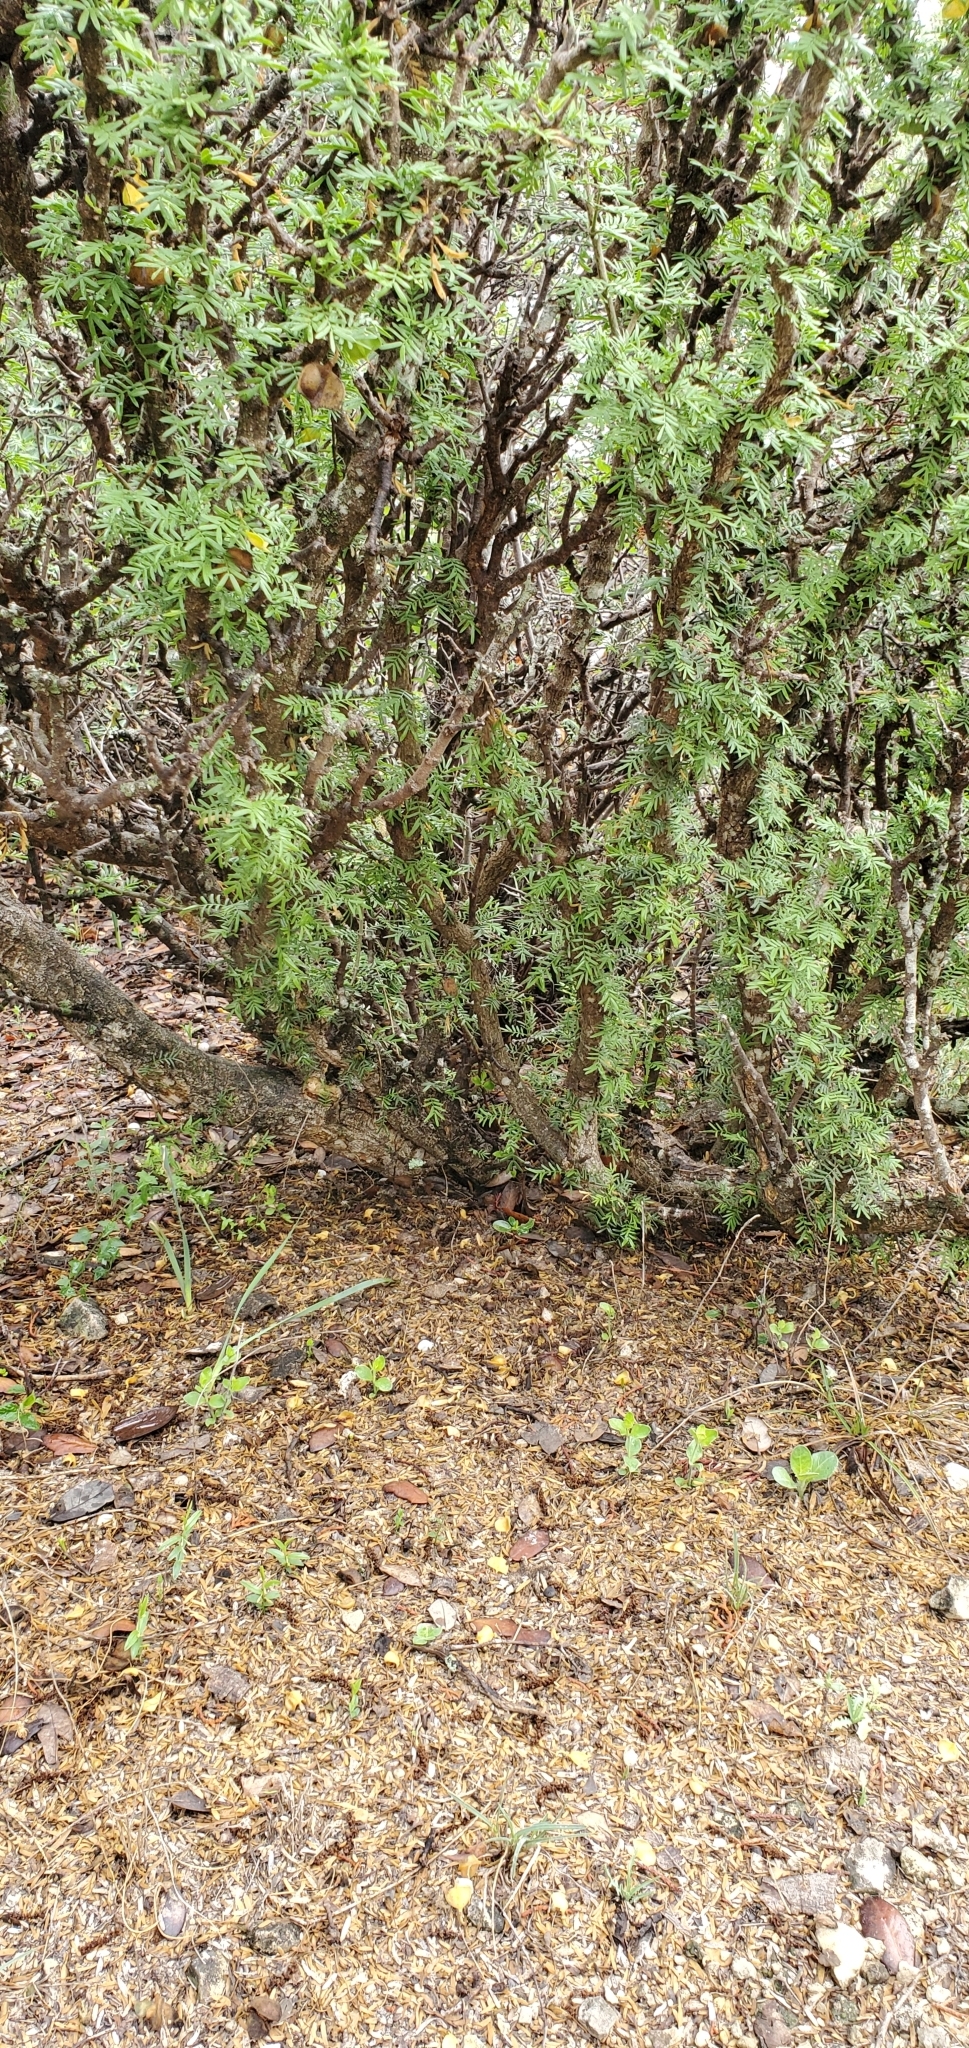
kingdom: Plantae
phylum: Tracheophyta
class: Magnoliopsida
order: Zygophyllales
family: Zygophyllaceae
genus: Porlieria
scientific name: Porlieria angustifolia
